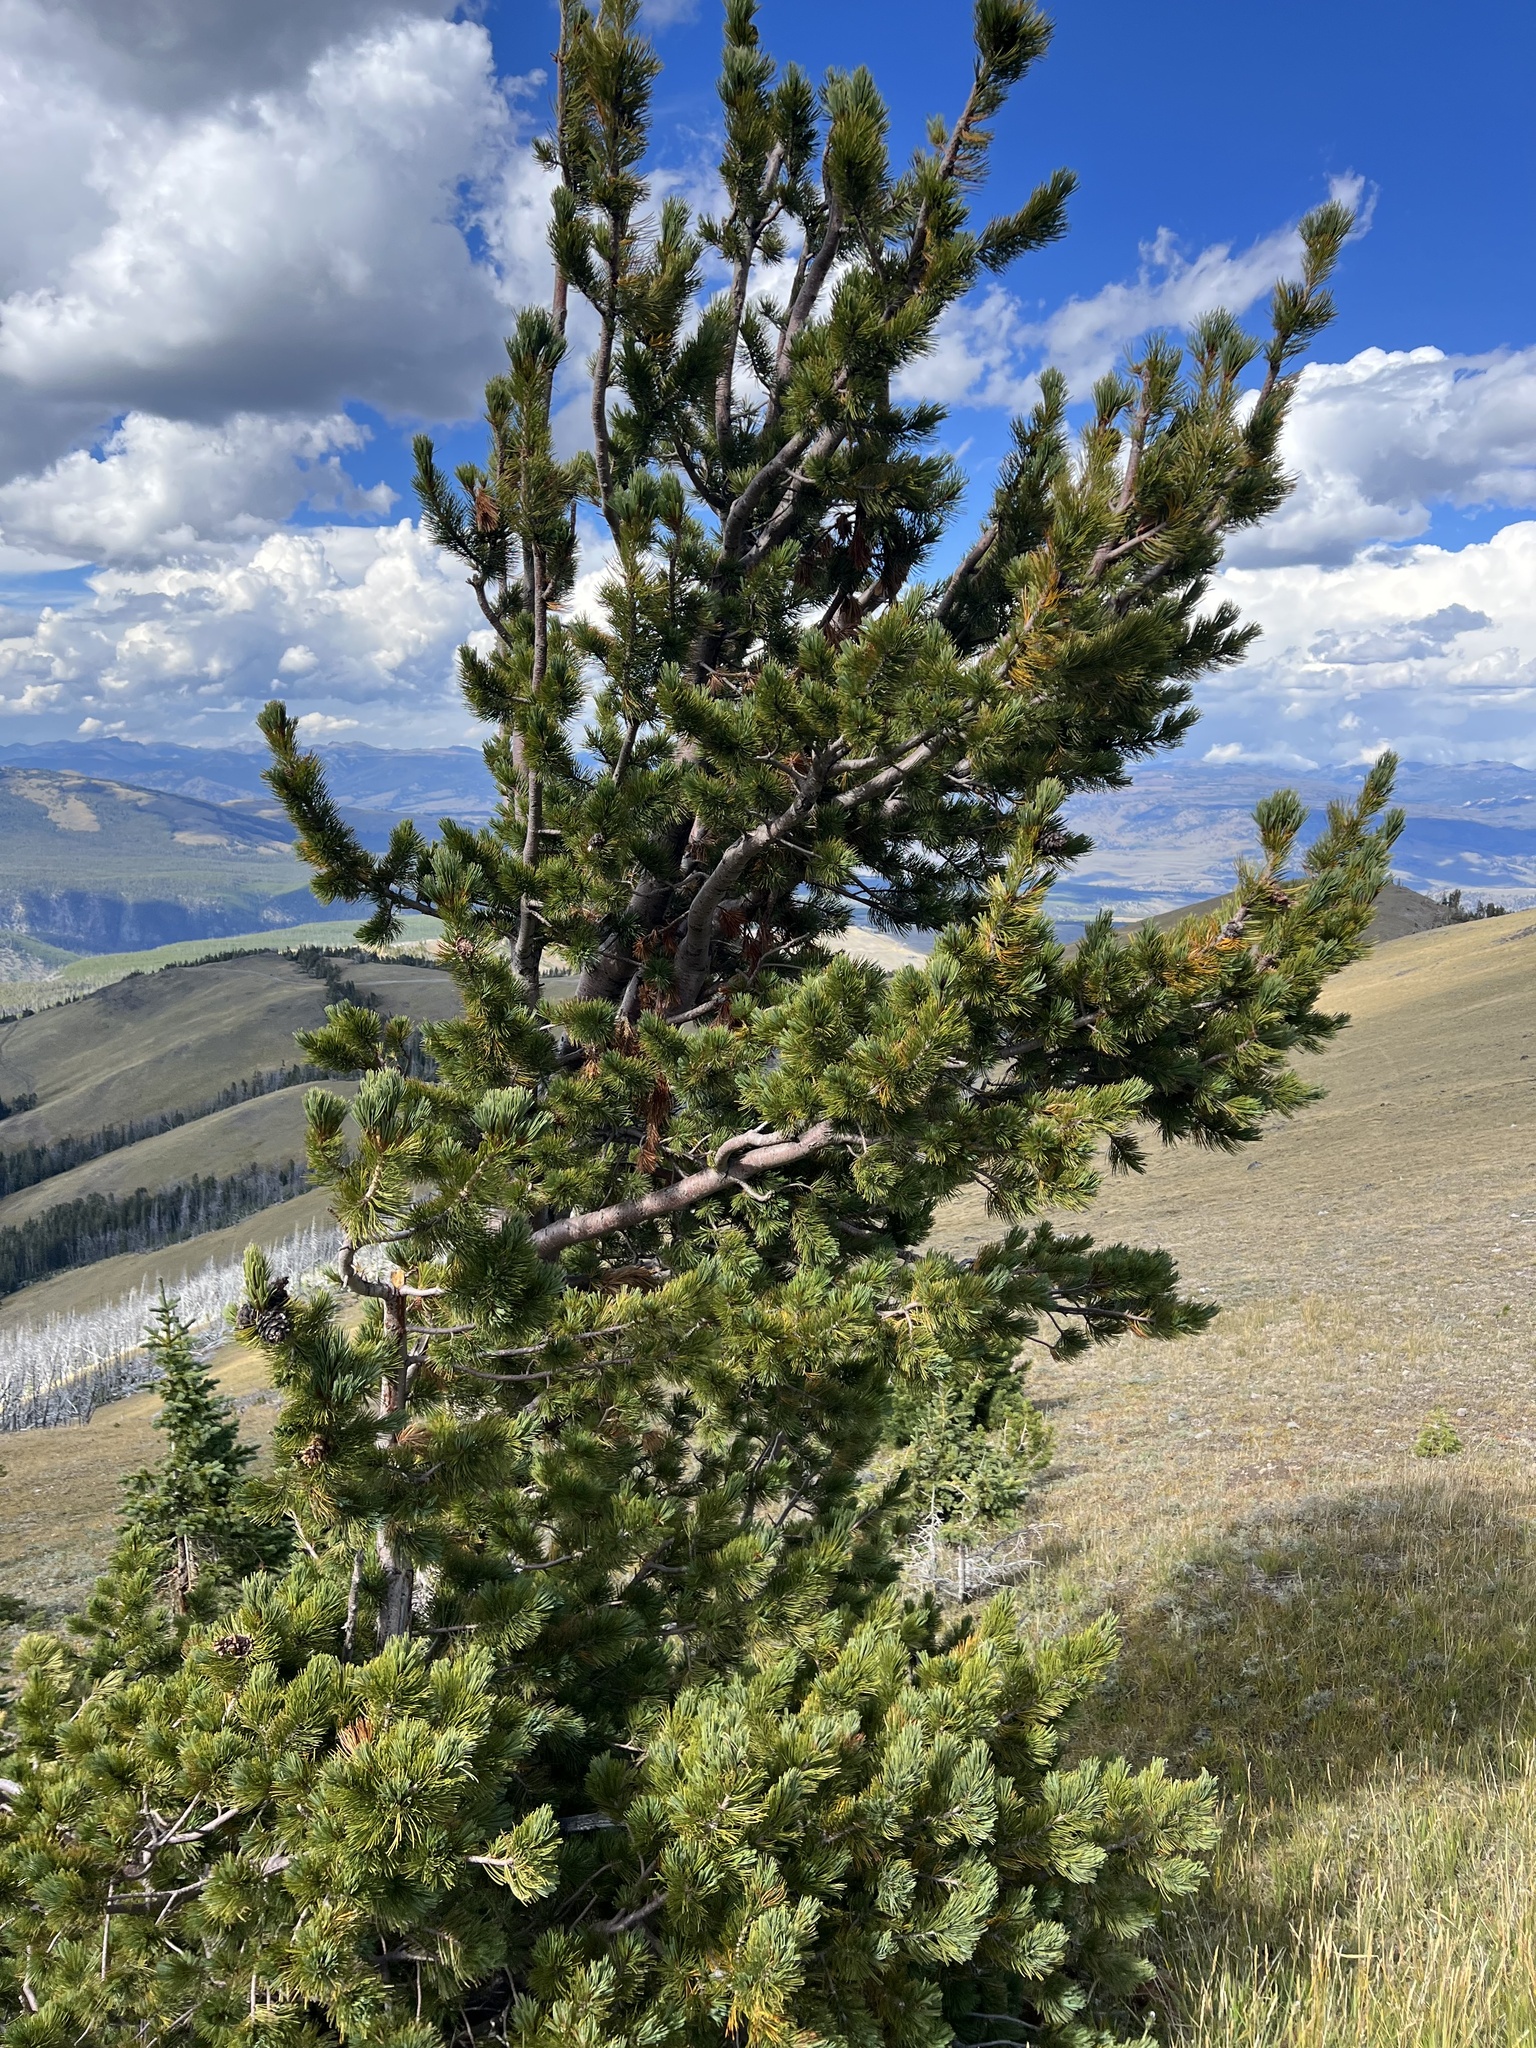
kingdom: Plantae
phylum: Tracheophyta
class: Pinopsida
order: Pinales
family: Pinaceae
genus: Pinus
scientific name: Pinus albicaulis
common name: Whitebark pine
